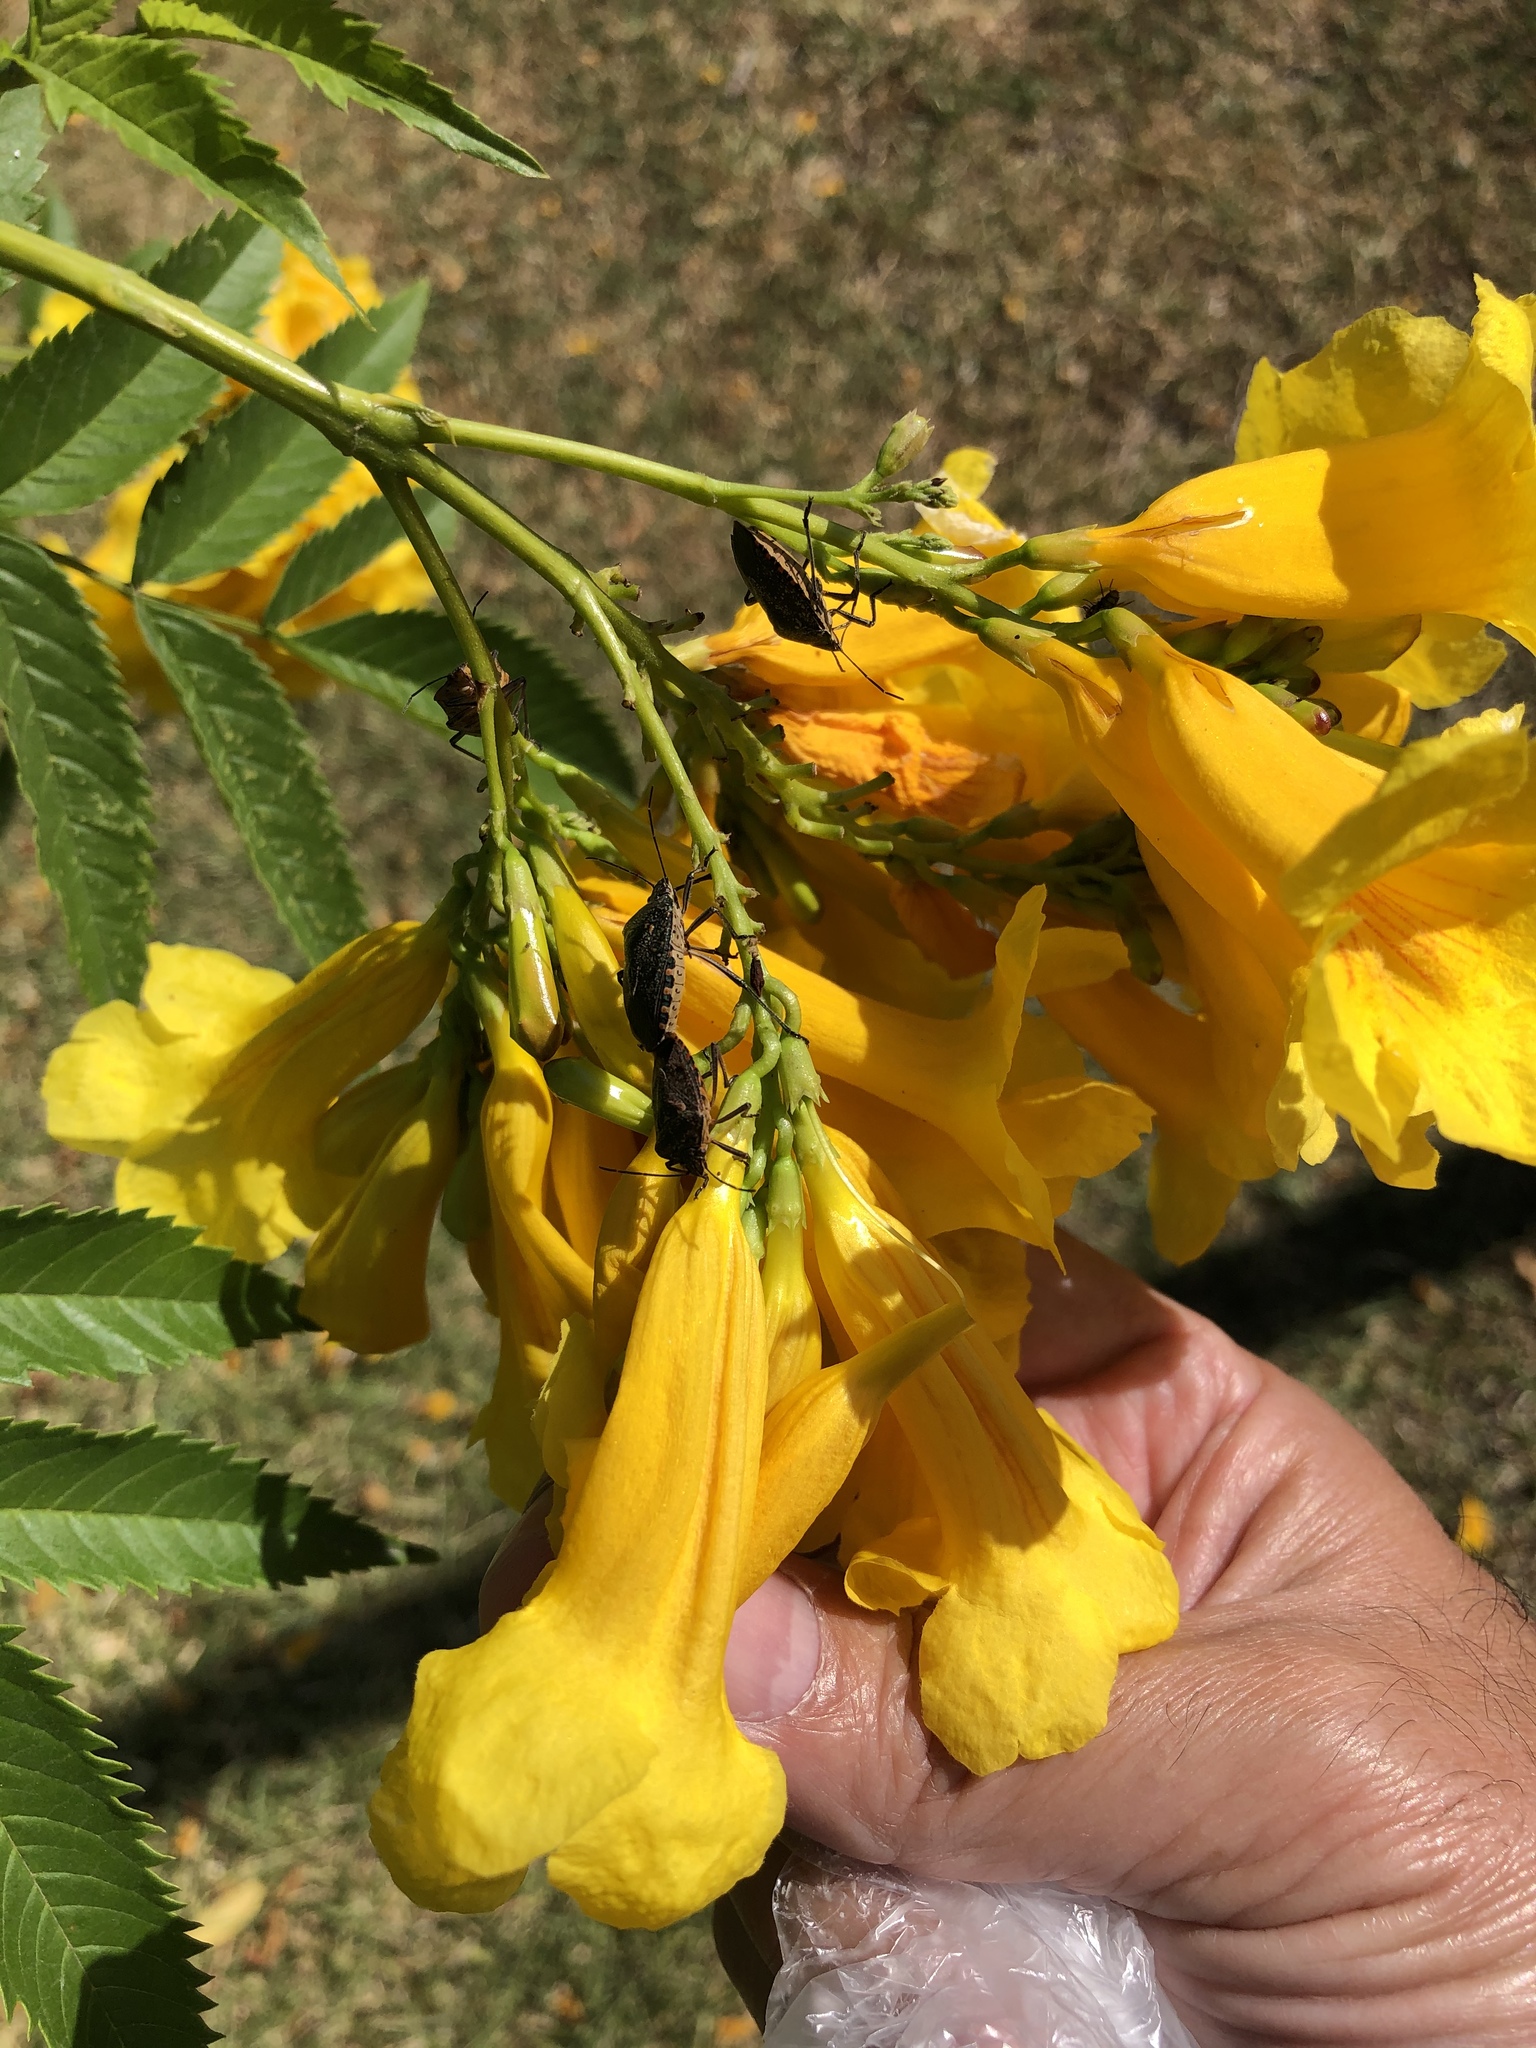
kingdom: Animalia
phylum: Arthropoda
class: Insecta
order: Hemiptera
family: Pentatomidae
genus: Pellaea
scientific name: Pellaea stictica
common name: Stink bug
